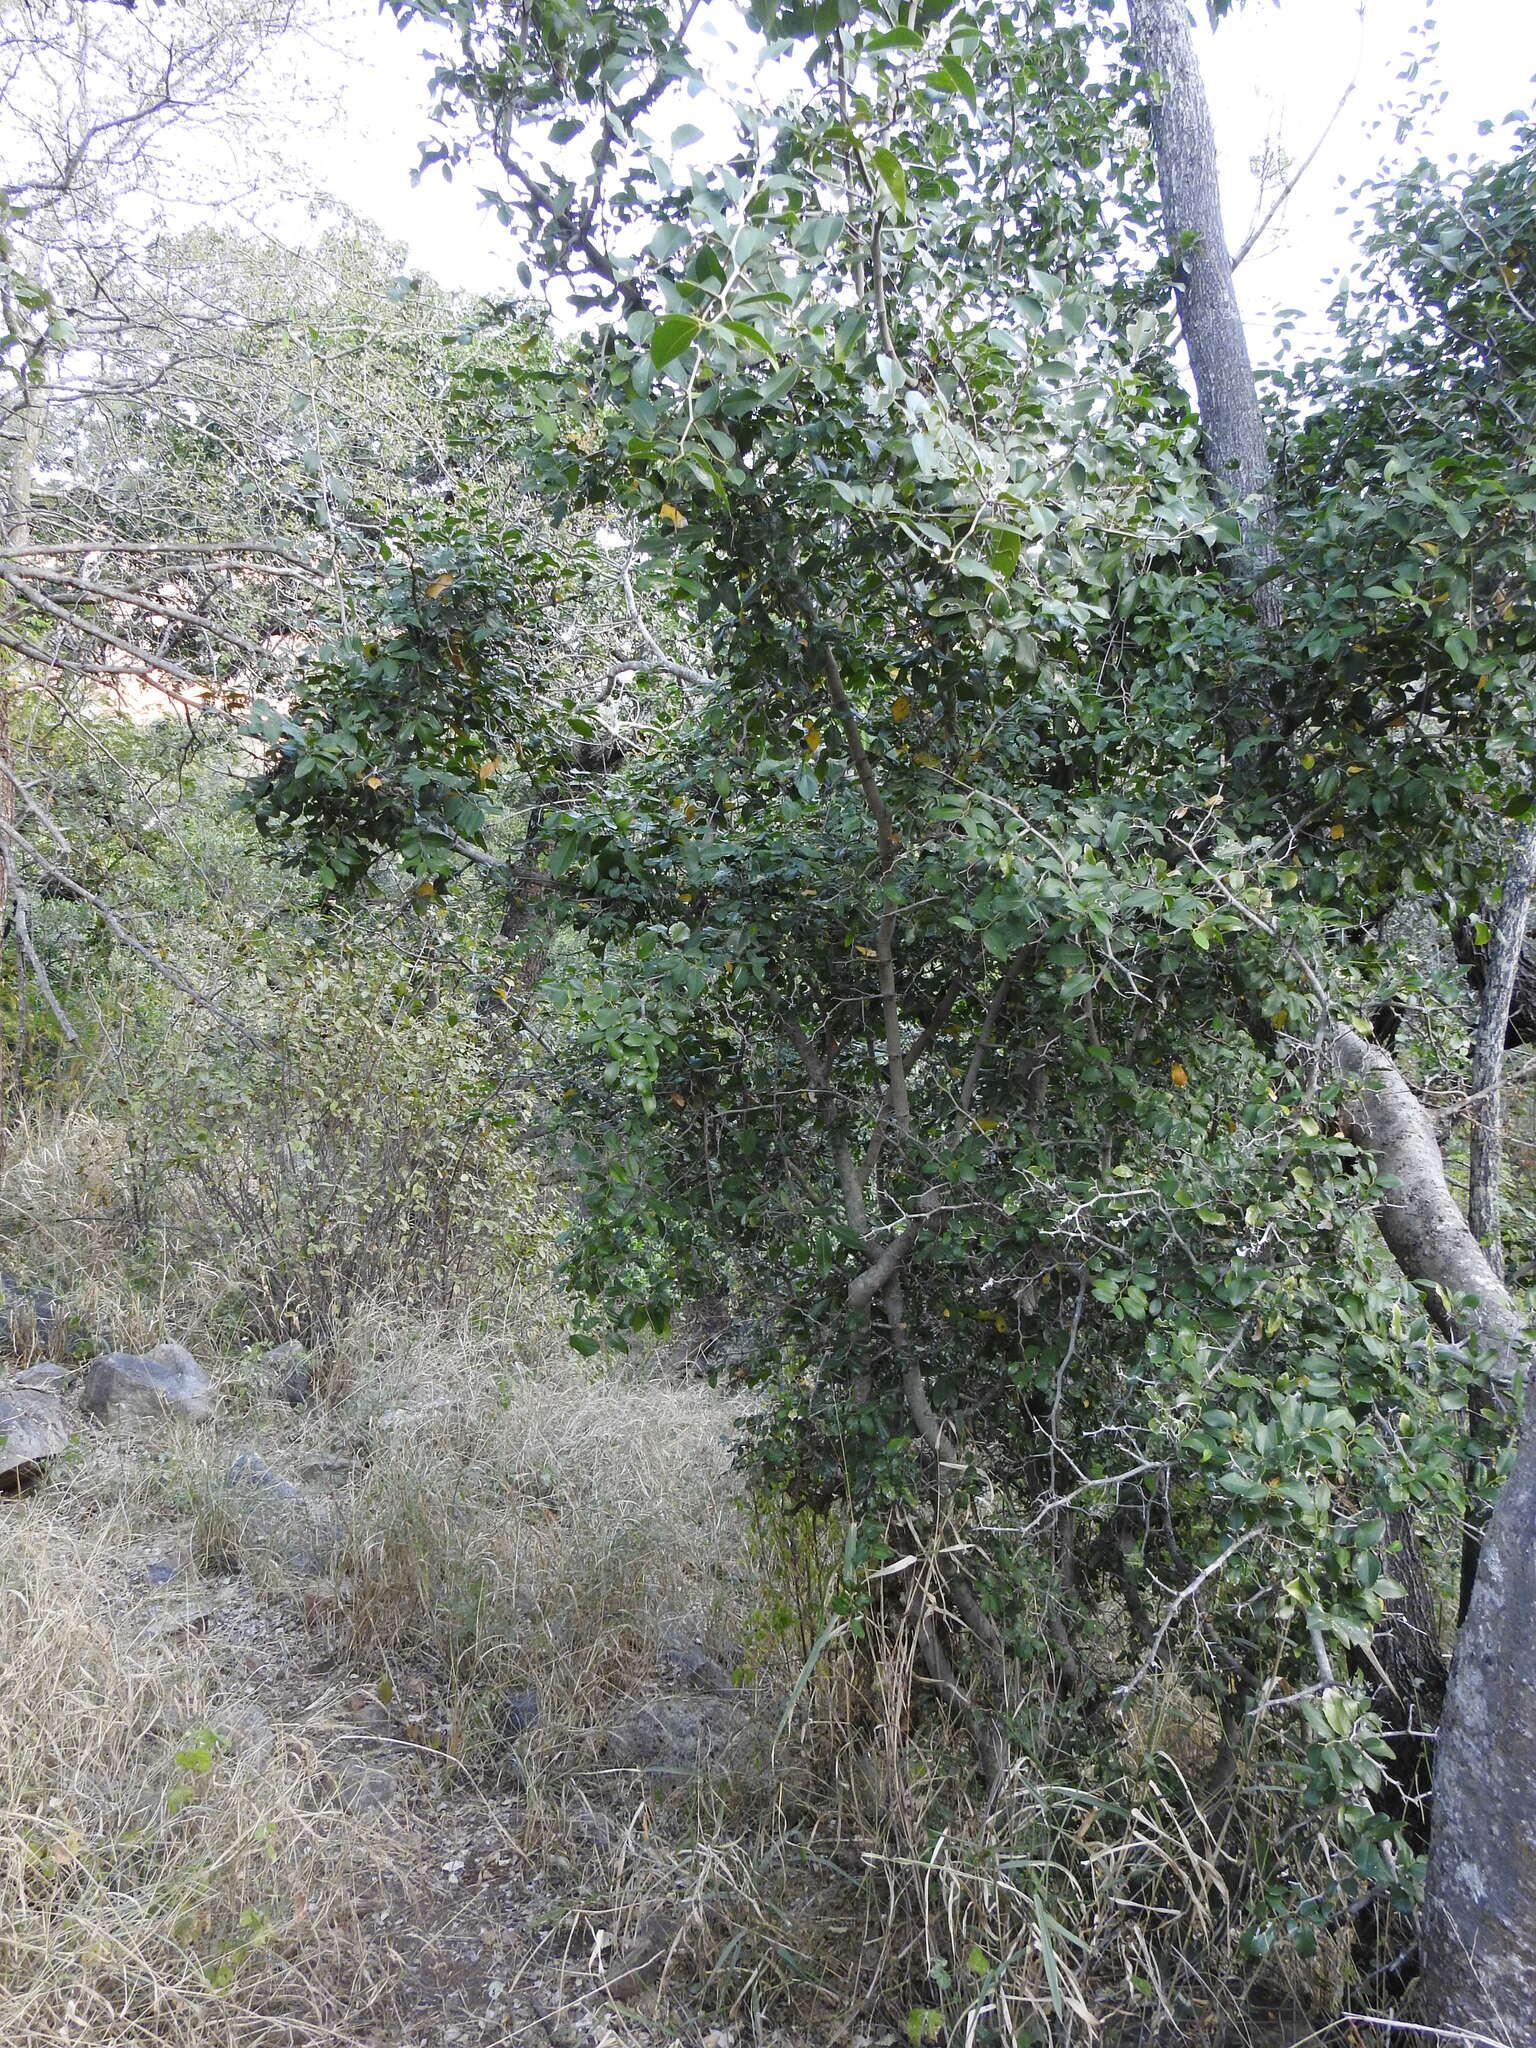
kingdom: Plantae
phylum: Tracheophyta
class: Magnoliopsida
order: Rosales
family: Cannabaceae
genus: Chaetachme
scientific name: Chaetachme aristata
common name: Thorny elm
